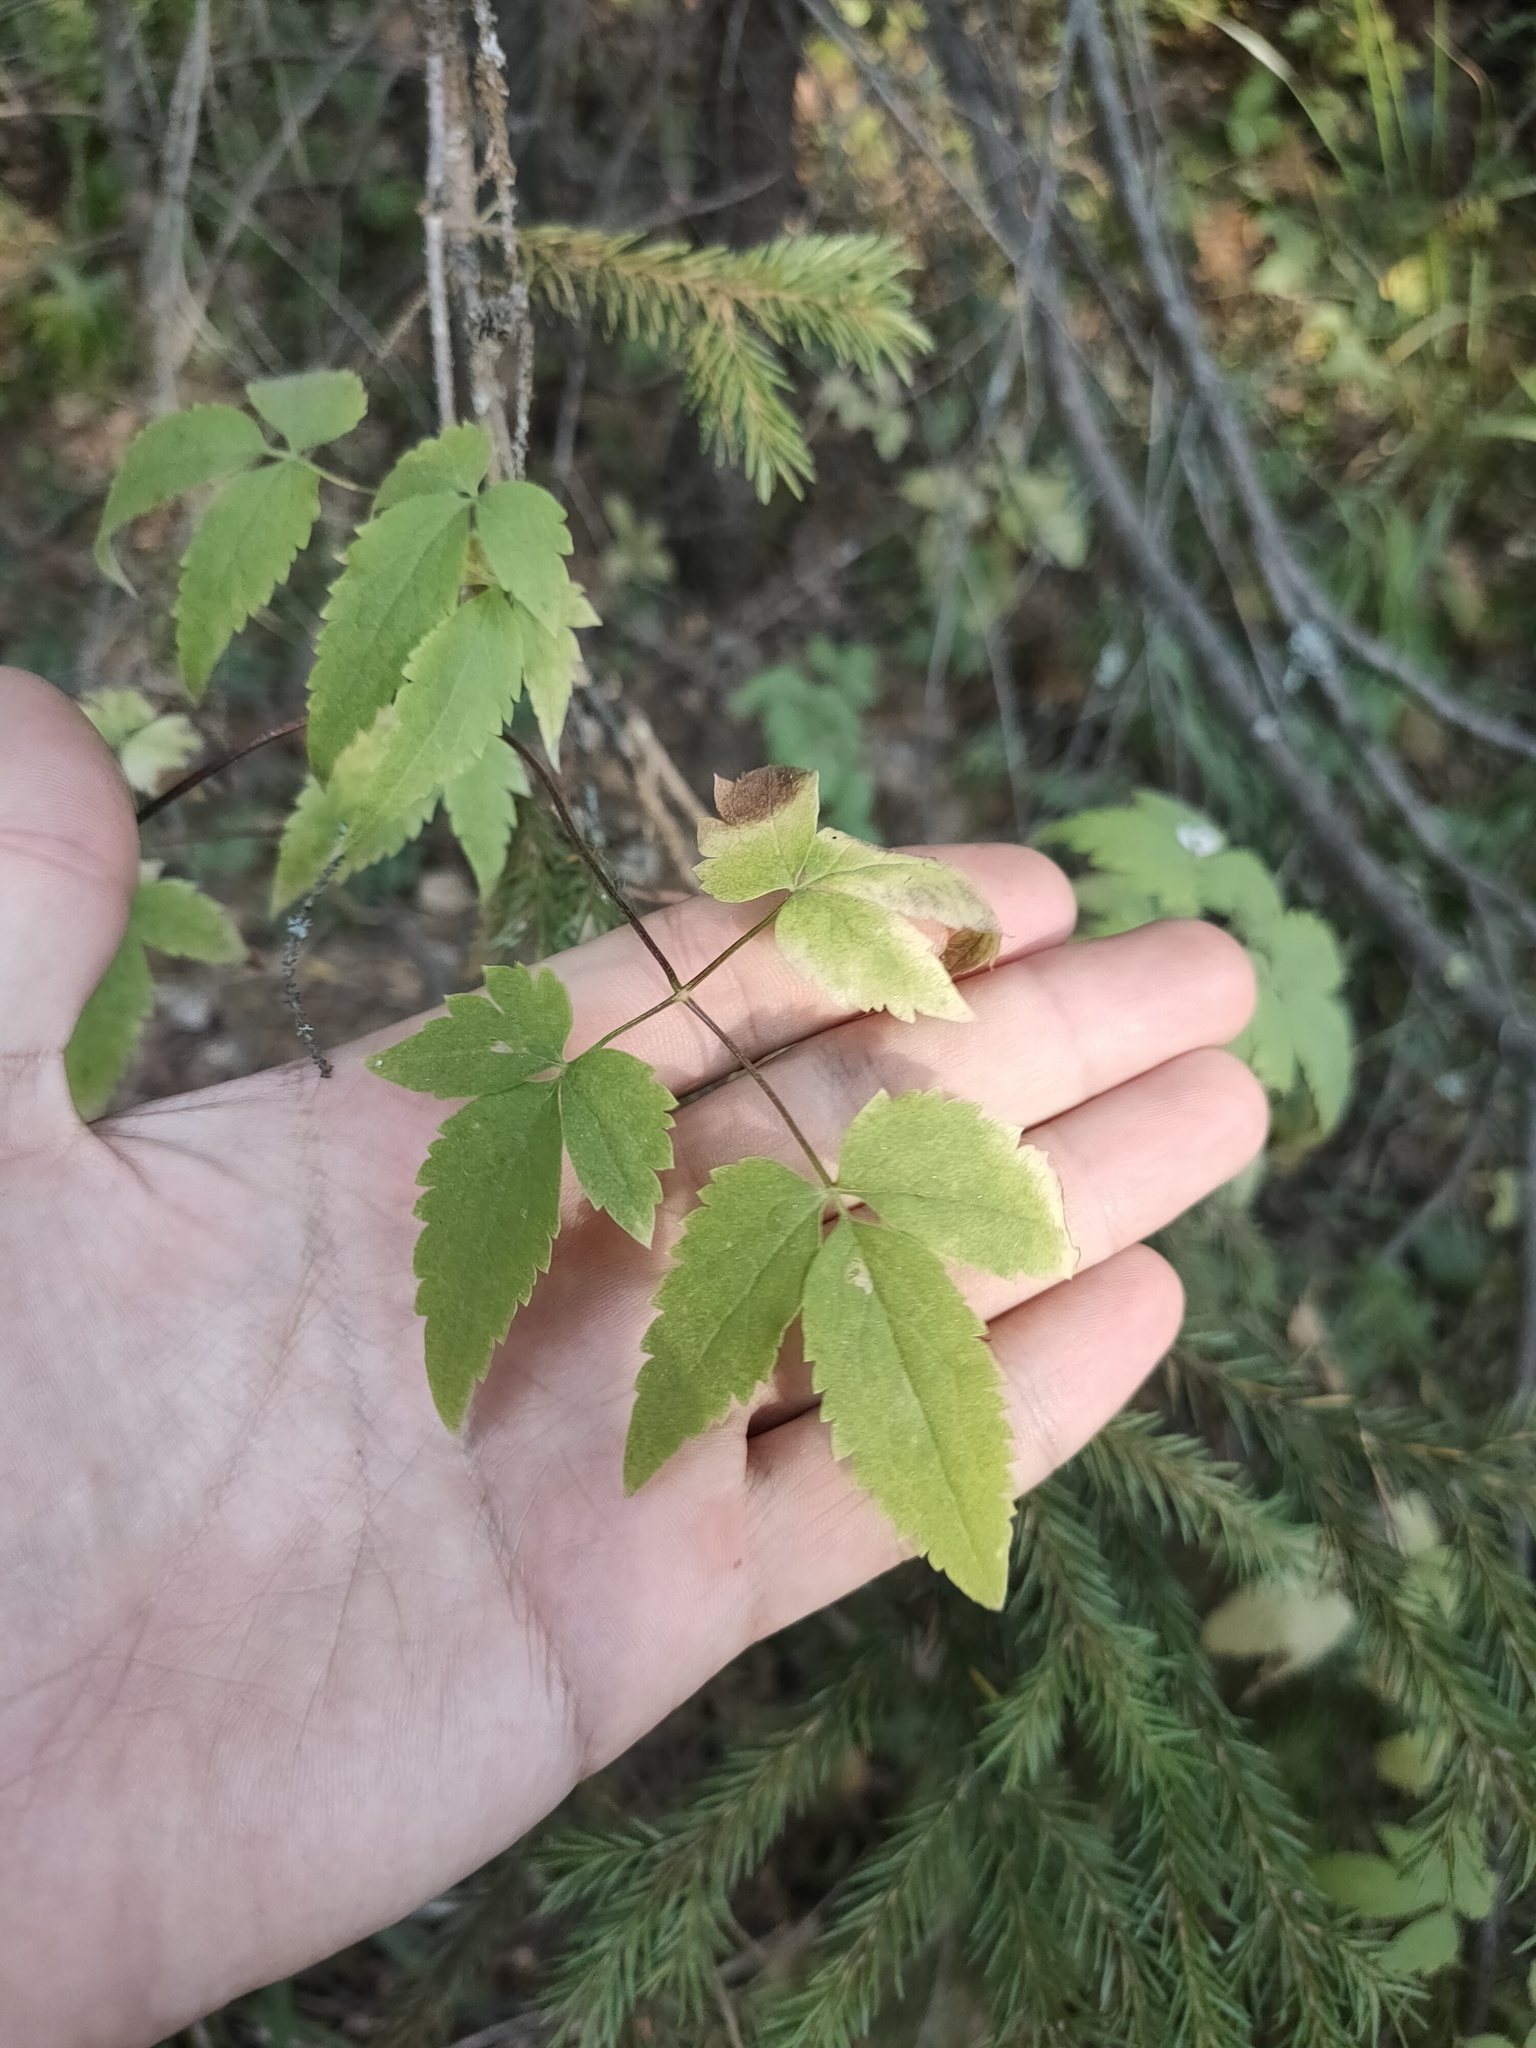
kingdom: Plantae
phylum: Tracheophyta
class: Magnoliopsida
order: Ranunculales
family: Ranunculaceae
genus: Clematis
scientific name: Clematis sibirica
